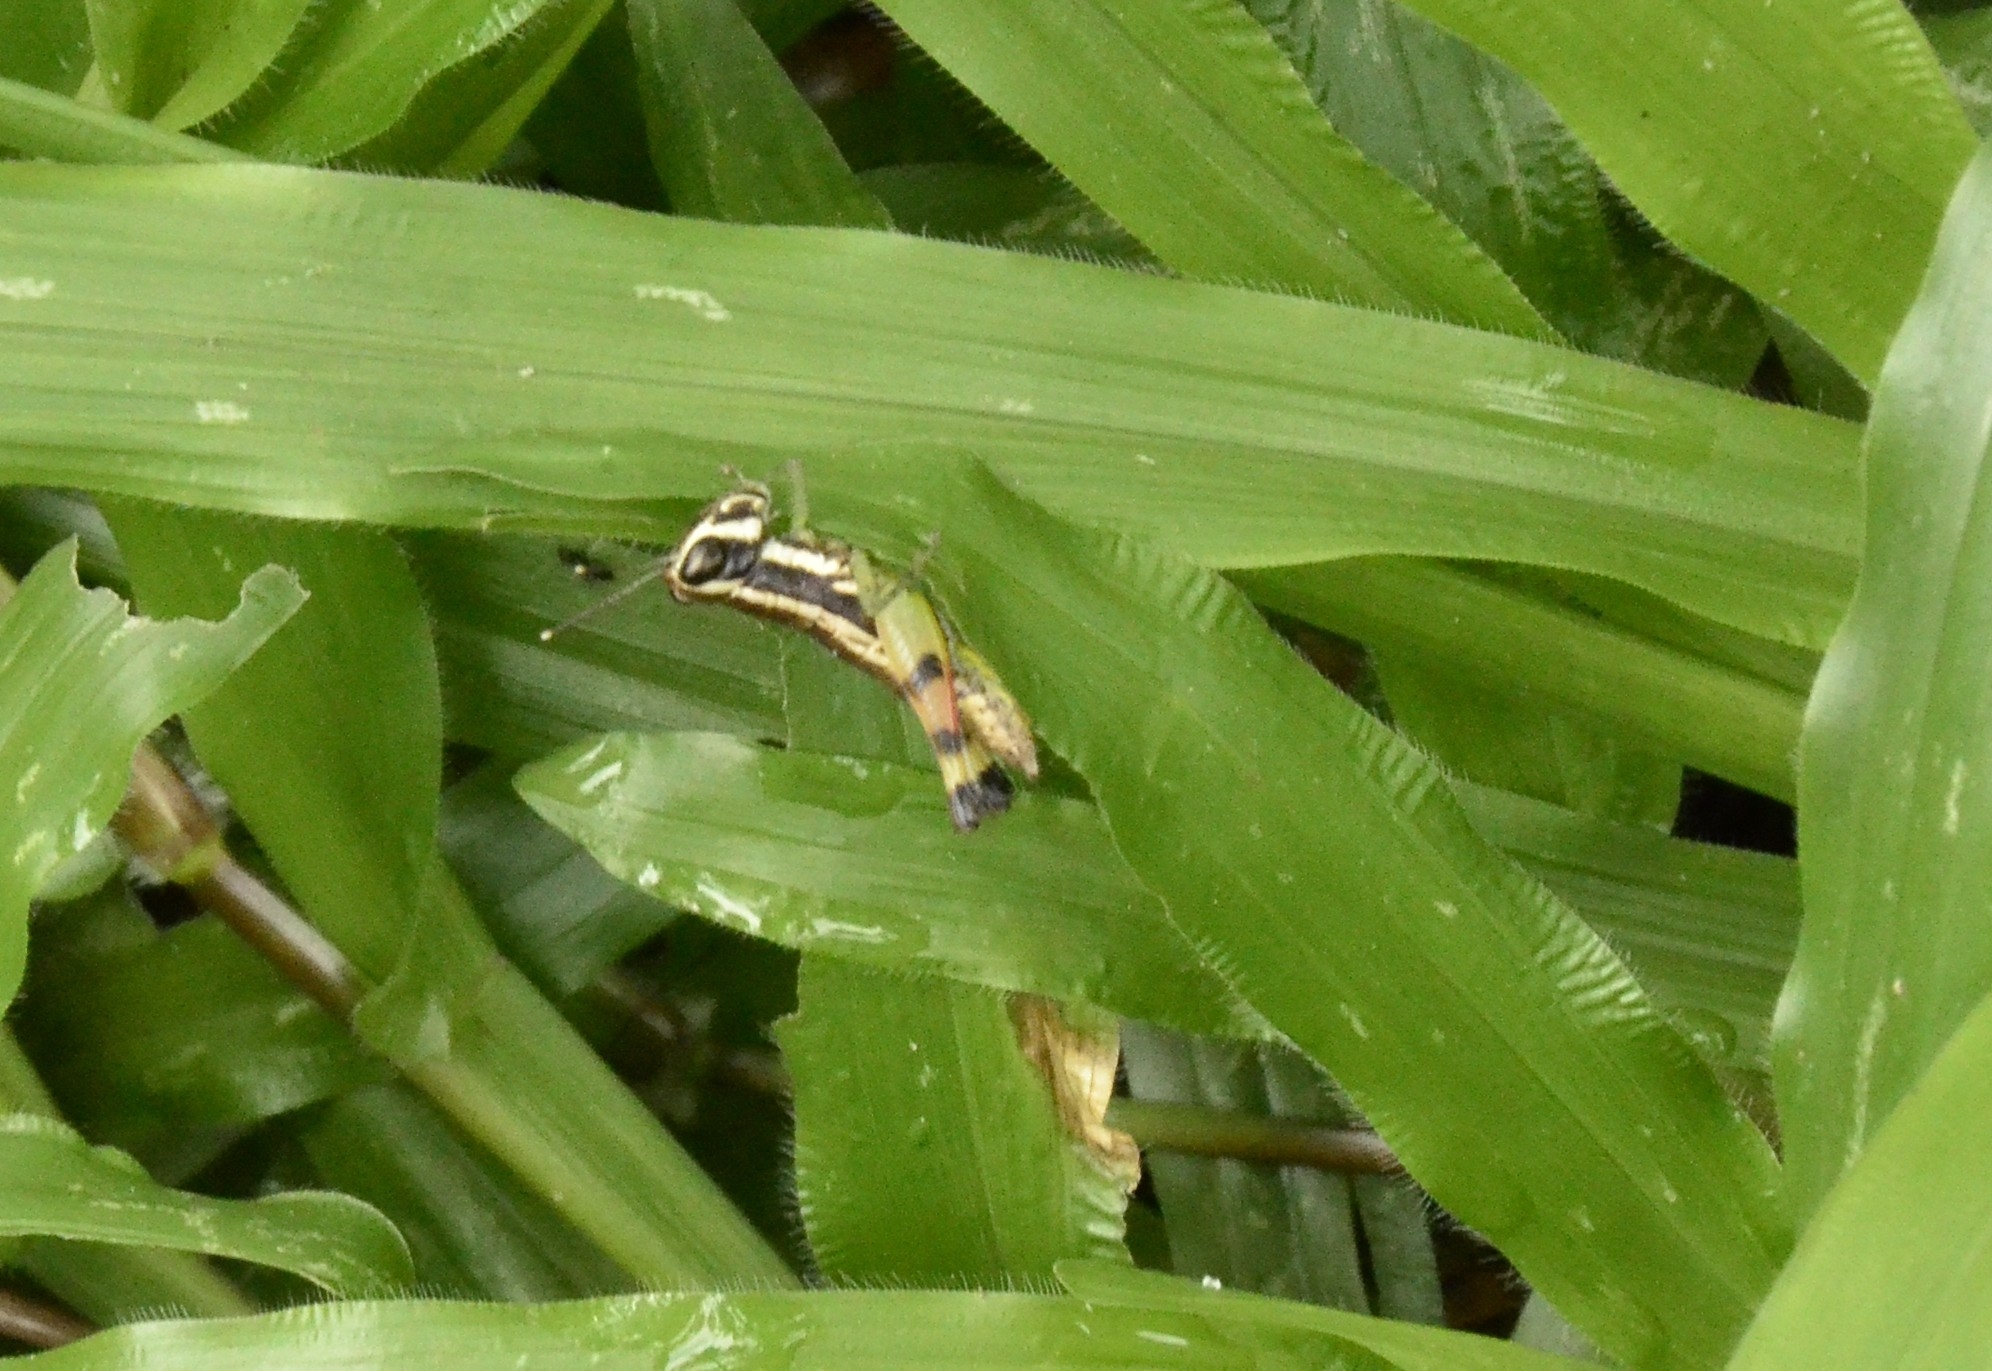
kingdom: Animalia
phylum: Arthropoda
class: Insecta
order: Orthoptera
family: Acrididae
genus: Chitaura
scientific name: Chitaura indica
